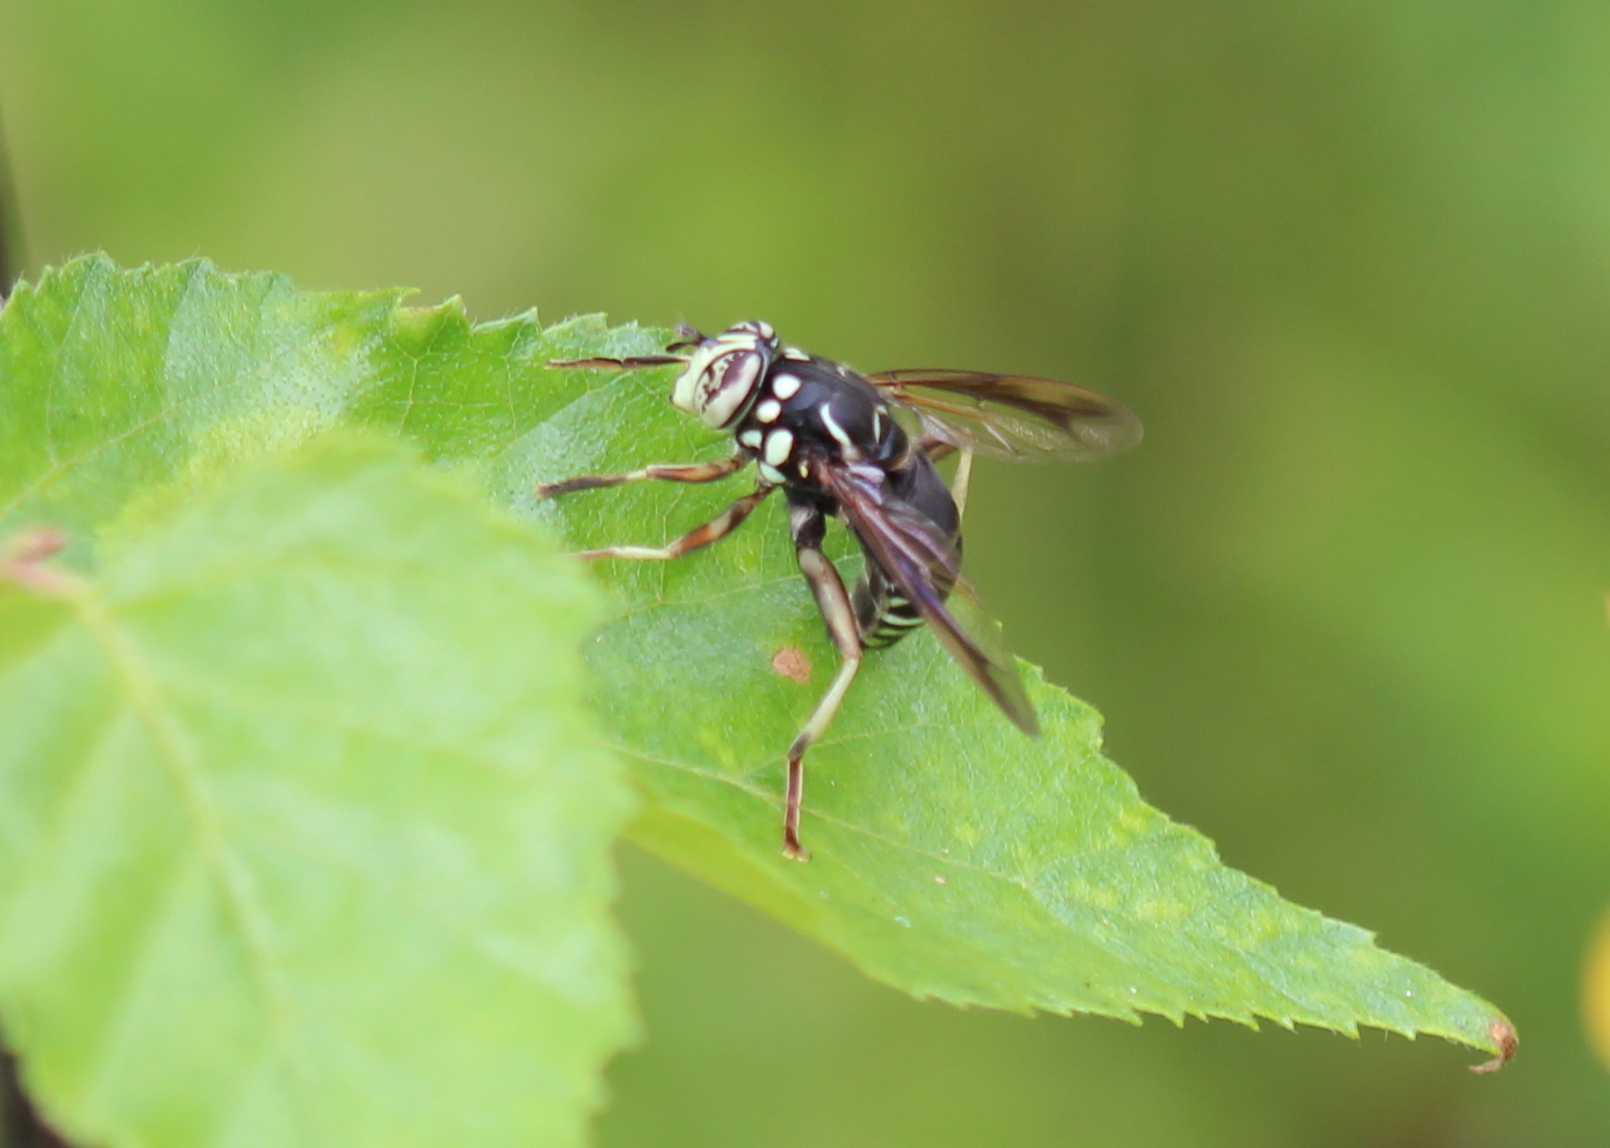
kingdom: Animalia
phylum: Arthropoda
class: Insecta
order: Diptera
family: Syrphidae
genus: Spilomyia
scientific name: Spilomyia fusca
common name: Bald-faced hornet fly
